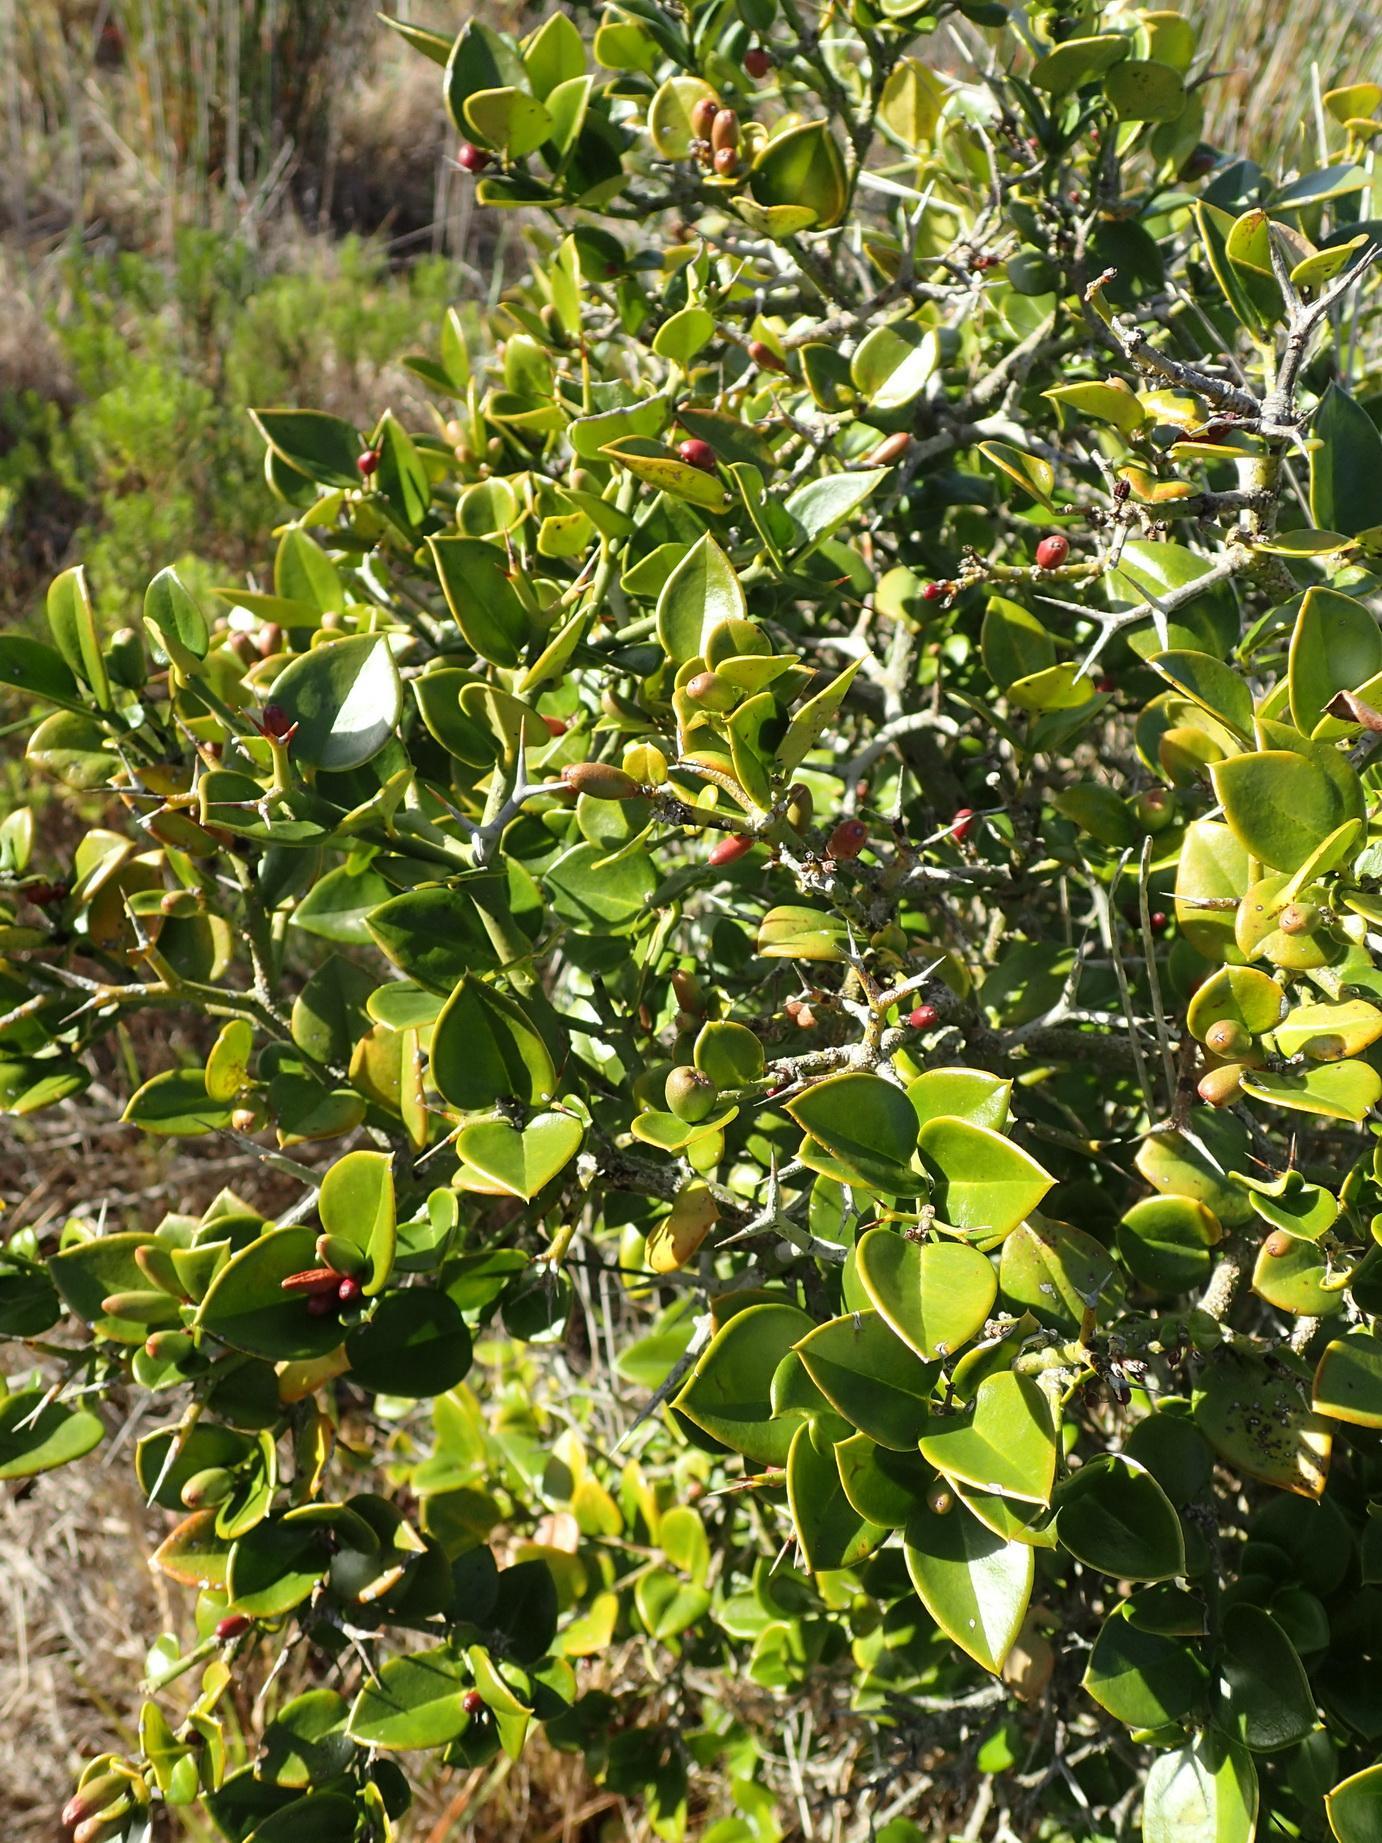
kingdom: Plantae
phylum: Tracheophyta
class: Magnoliopsida
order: Gentianales
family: Apocynaceae
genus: Carissa
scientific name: Carissa bispinosa
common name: Forest num-num
